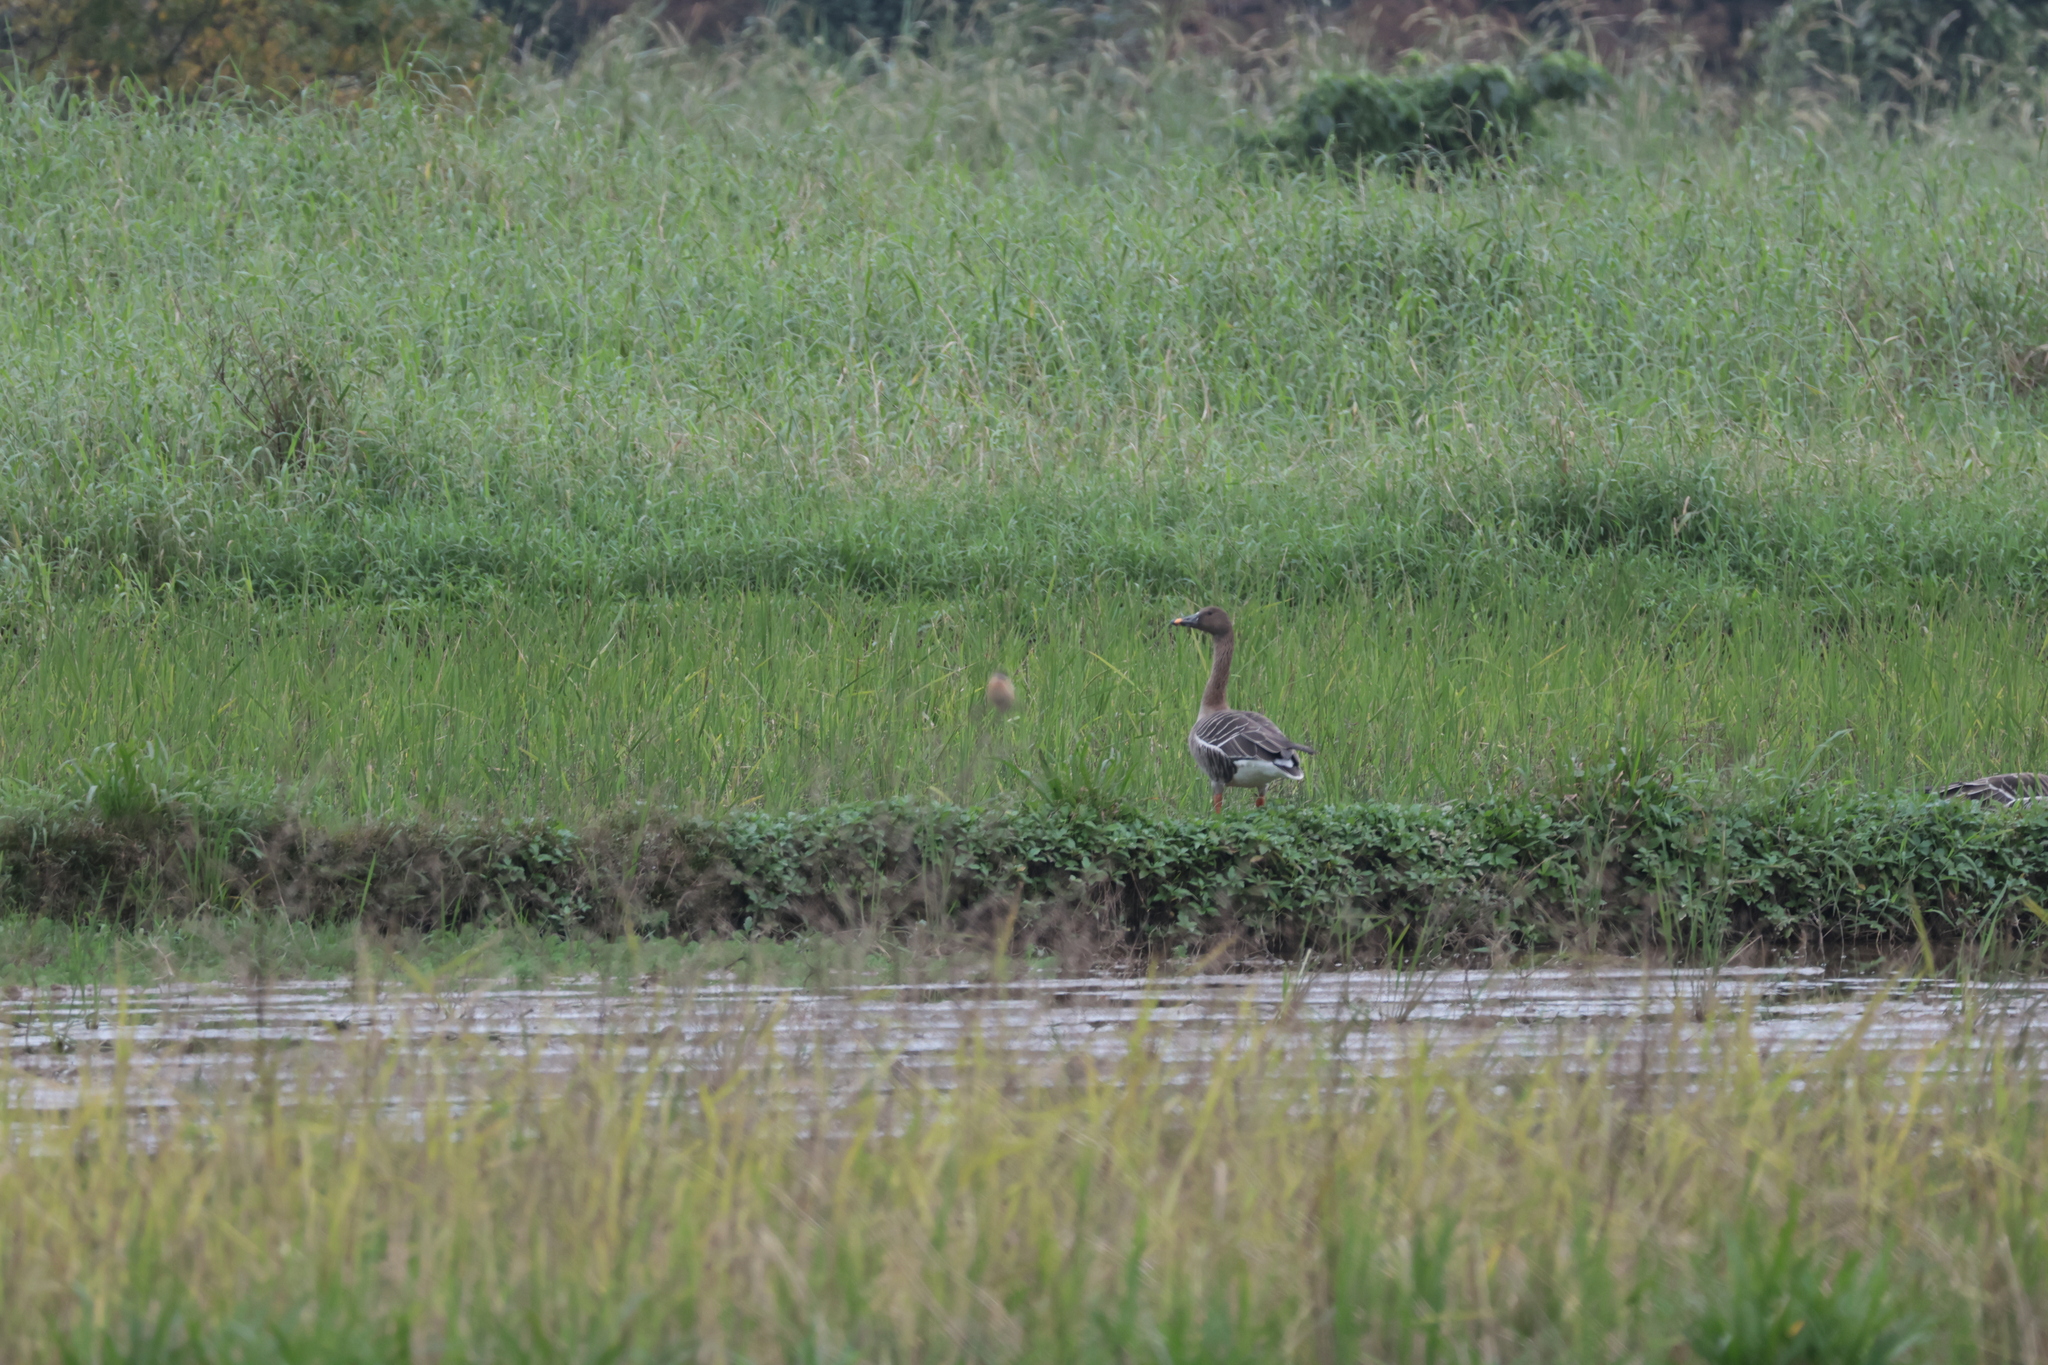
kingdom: Animalia
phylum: Chordata
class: Aves
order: Anseriformes
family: Anatidae
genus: Anser
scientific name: Anser fabalis
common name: Bean goose
